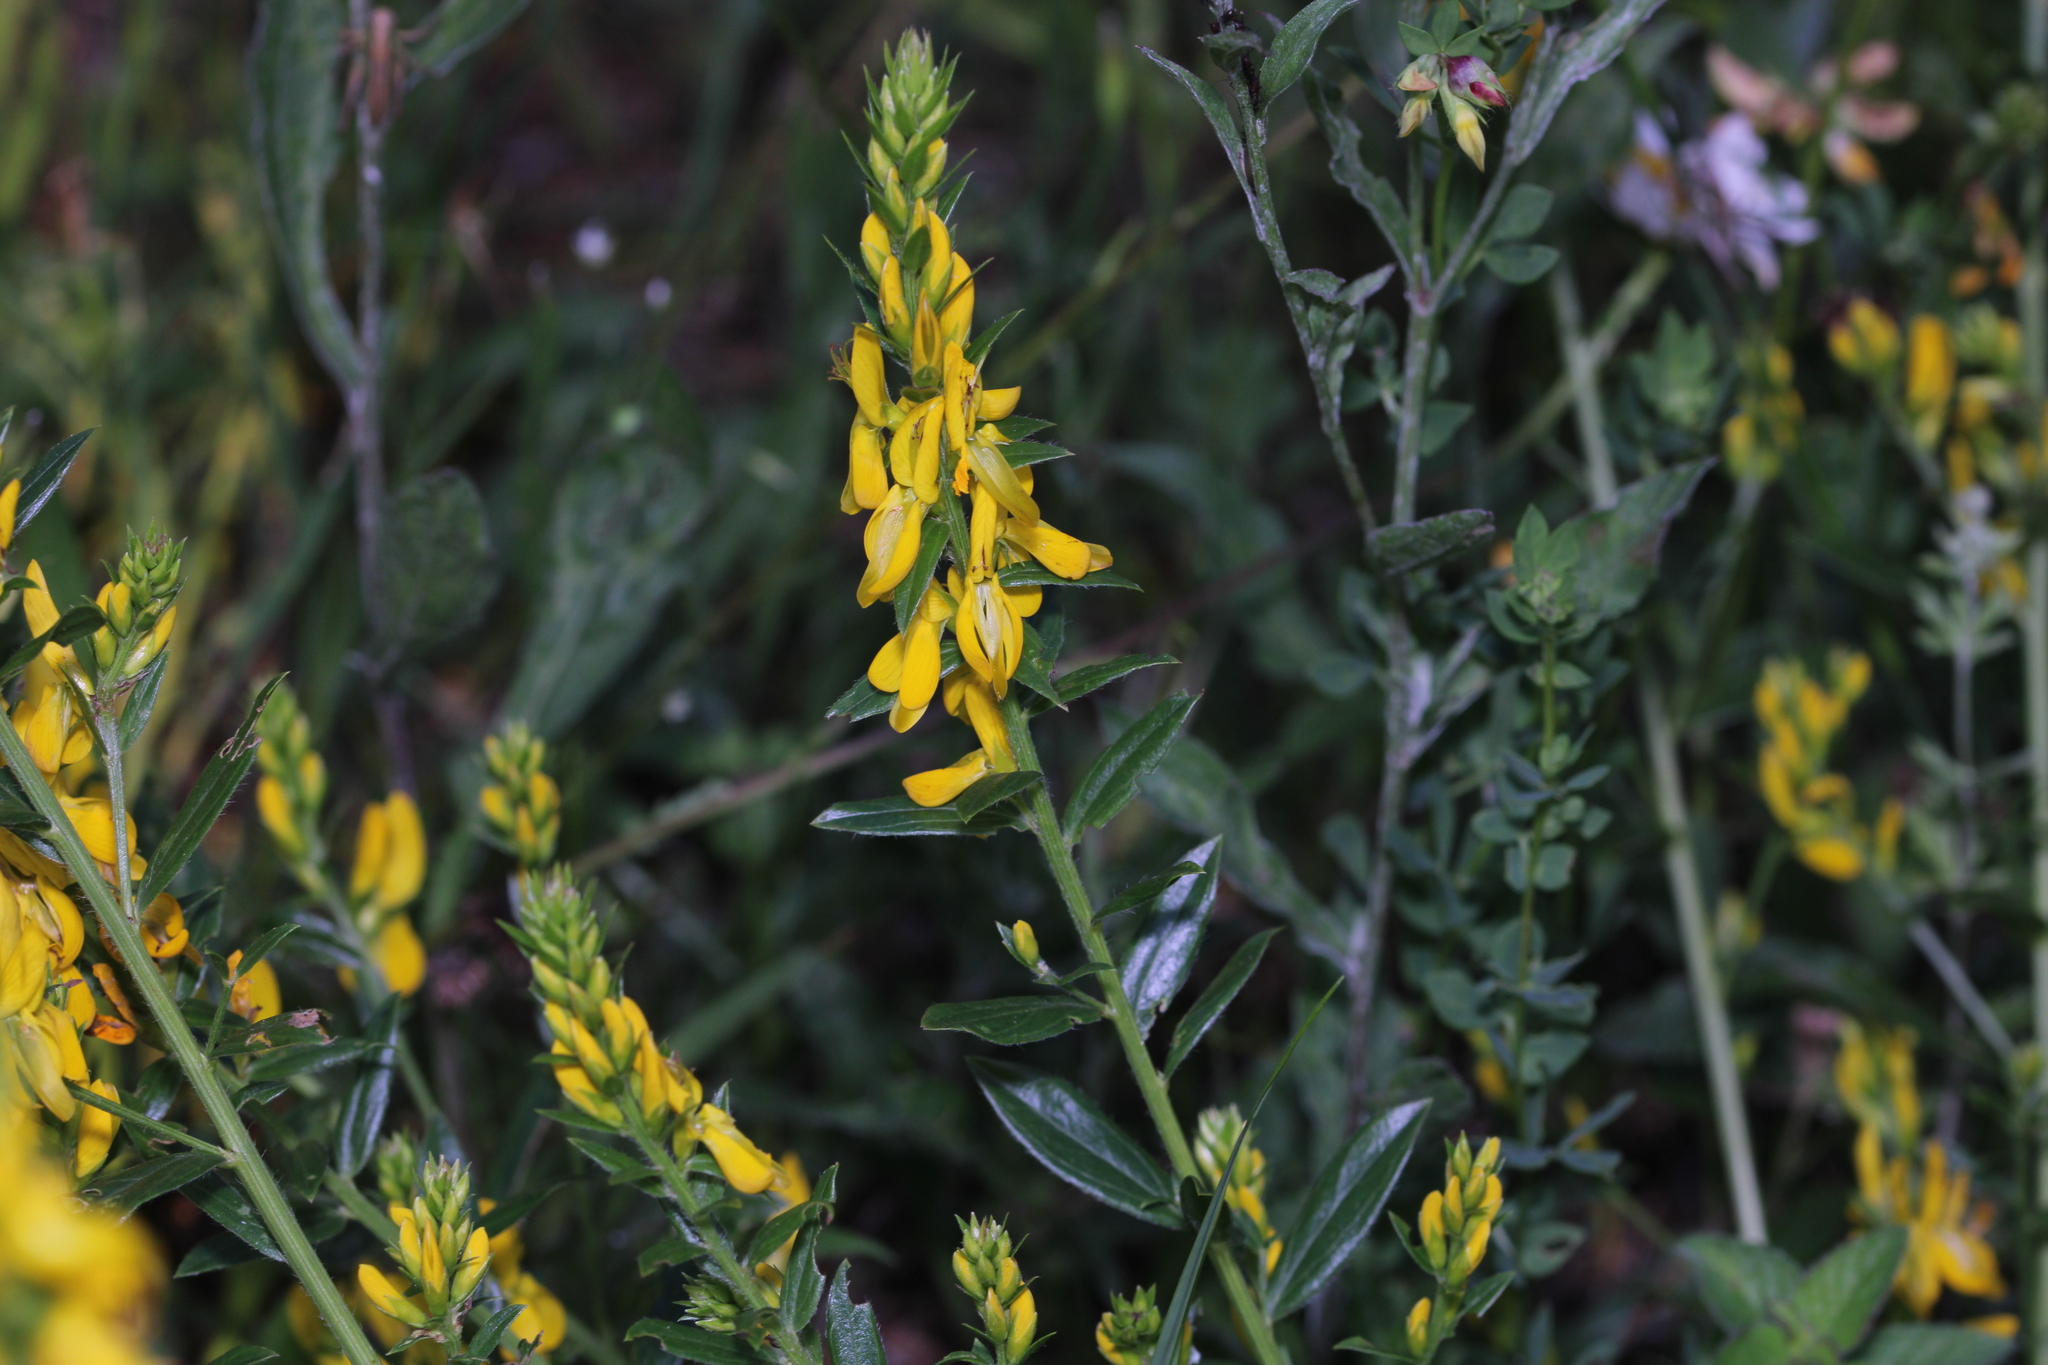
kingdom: Plantae
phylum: Tracheophyta
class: Magnoliopsida
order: Fabales
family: Fabaceae
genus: Genista
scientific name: Genista tinctoria
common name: Dyer's greenweed
